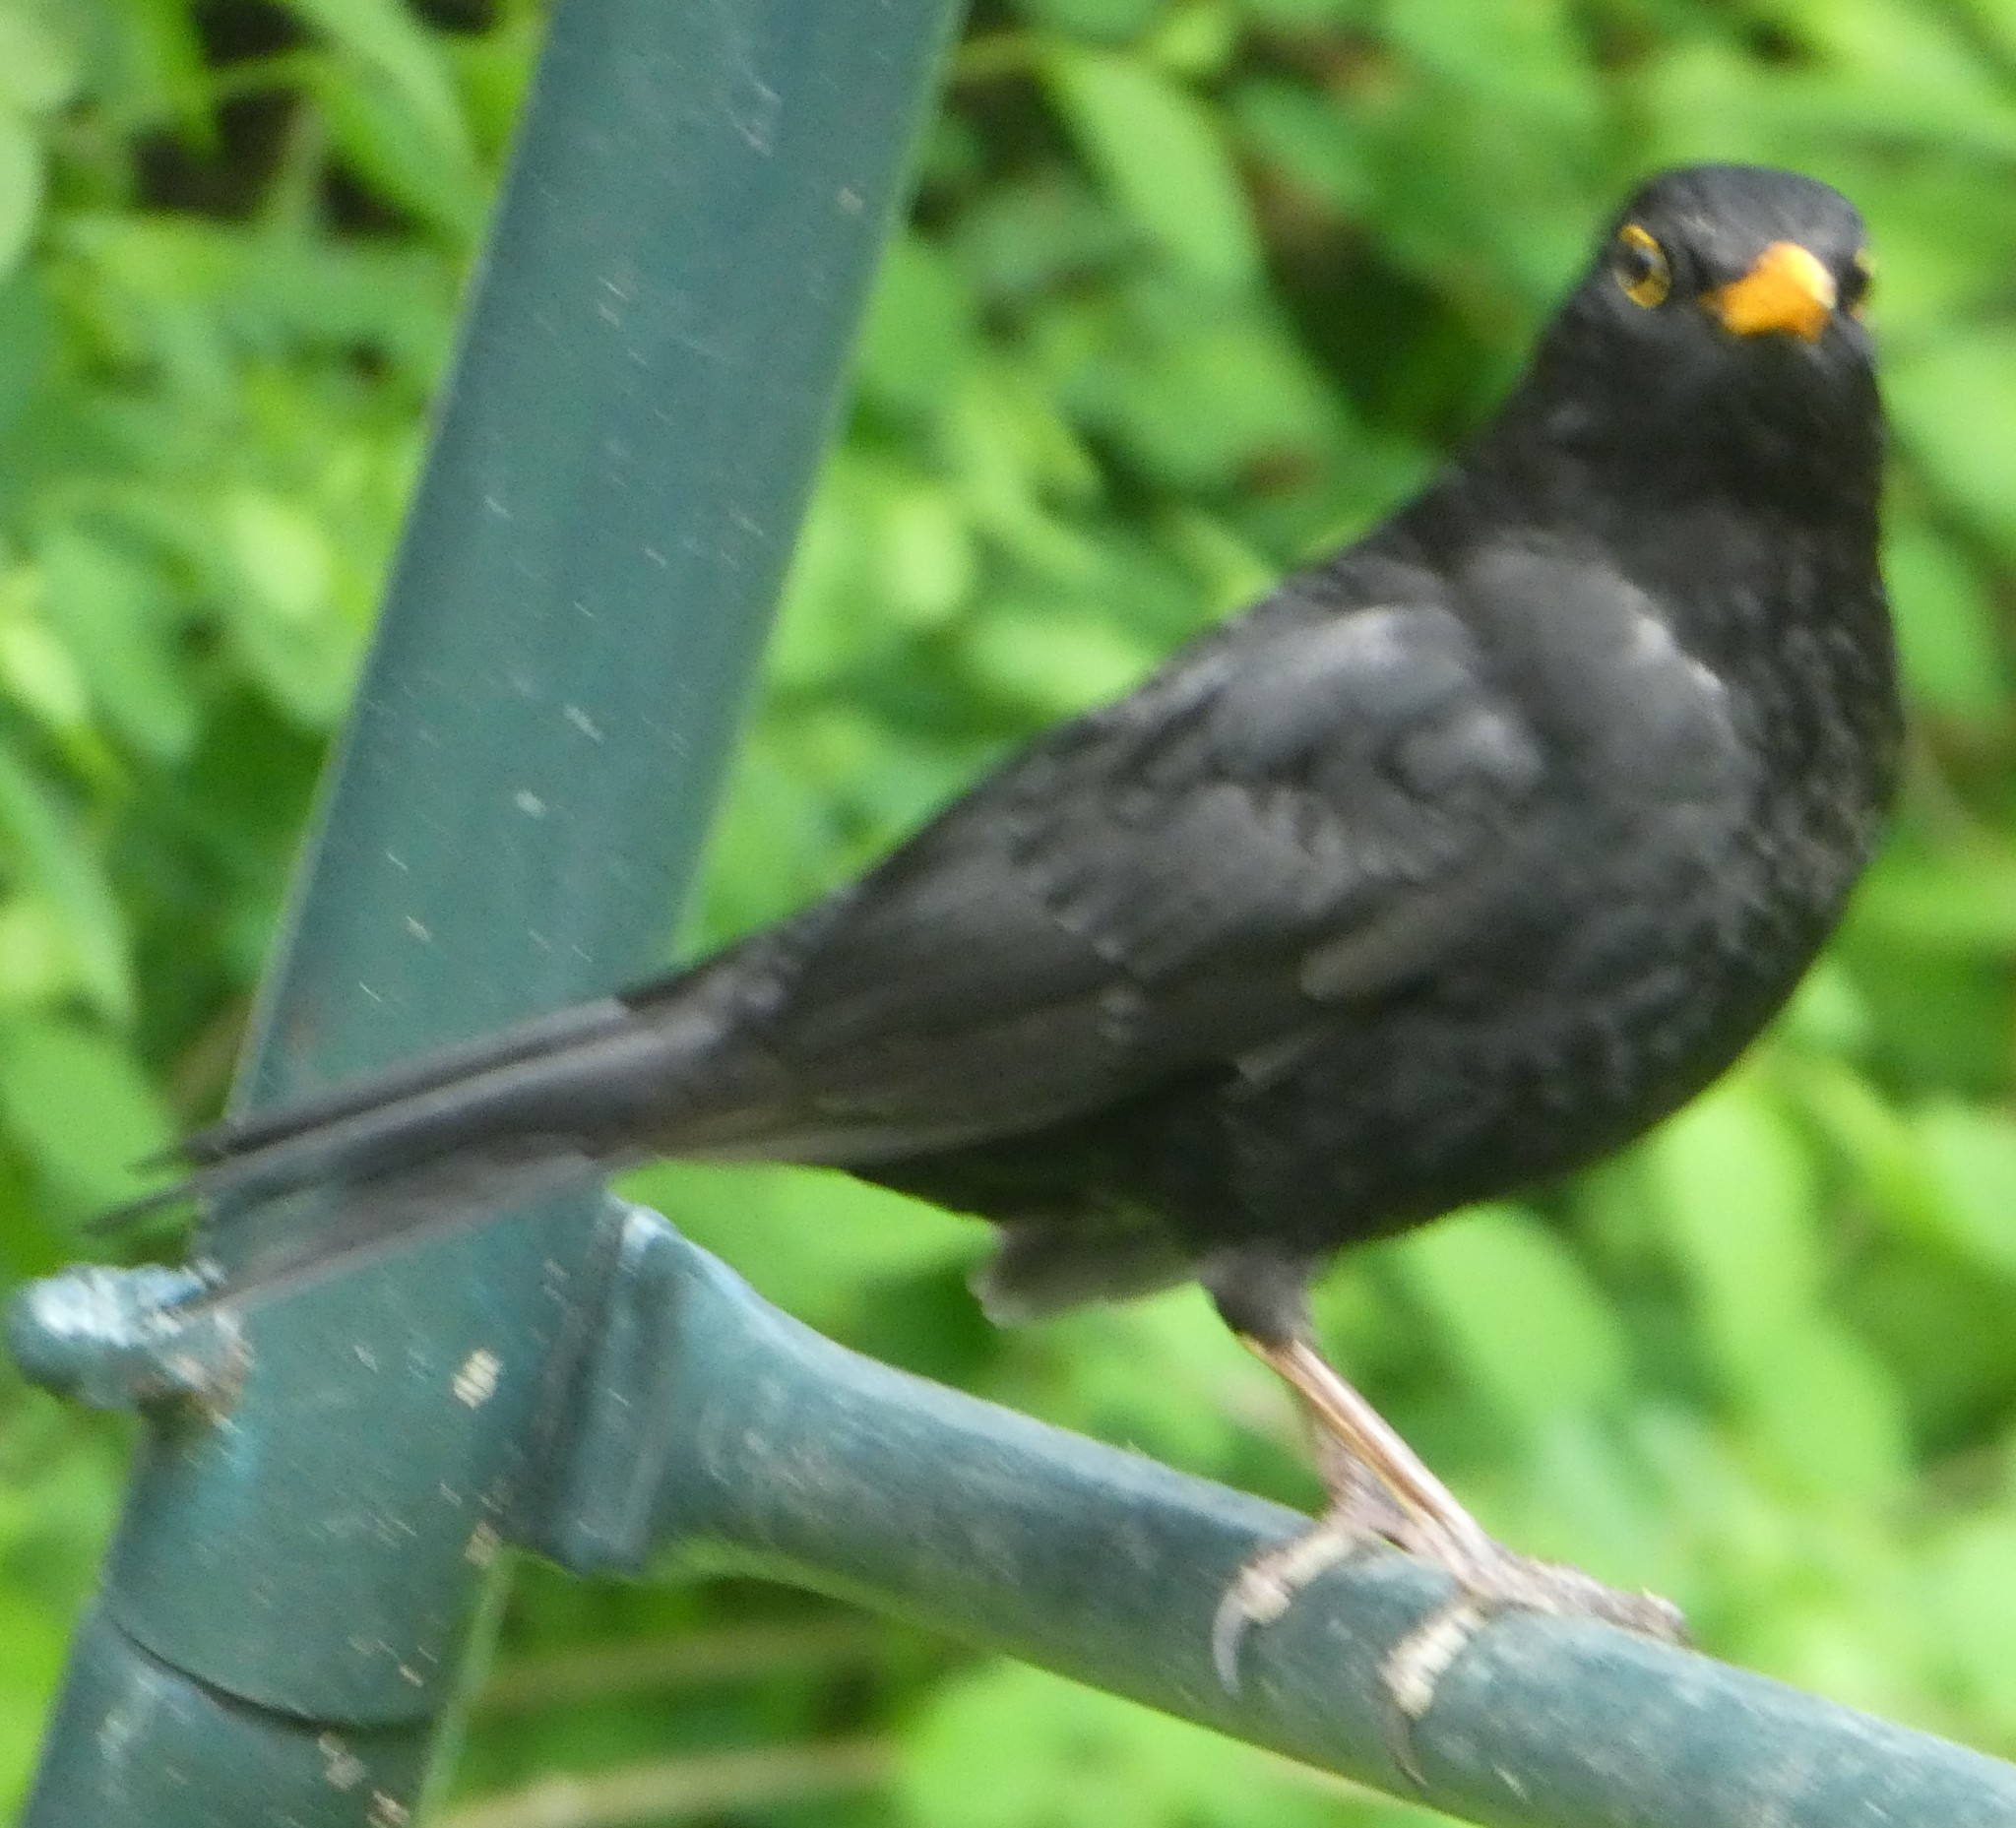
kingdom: Animalia
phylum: Chordata
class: Aves
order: Passeriformes
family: Turdidae
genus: Turdus
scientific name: Turdus merula
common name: Common blackbird
